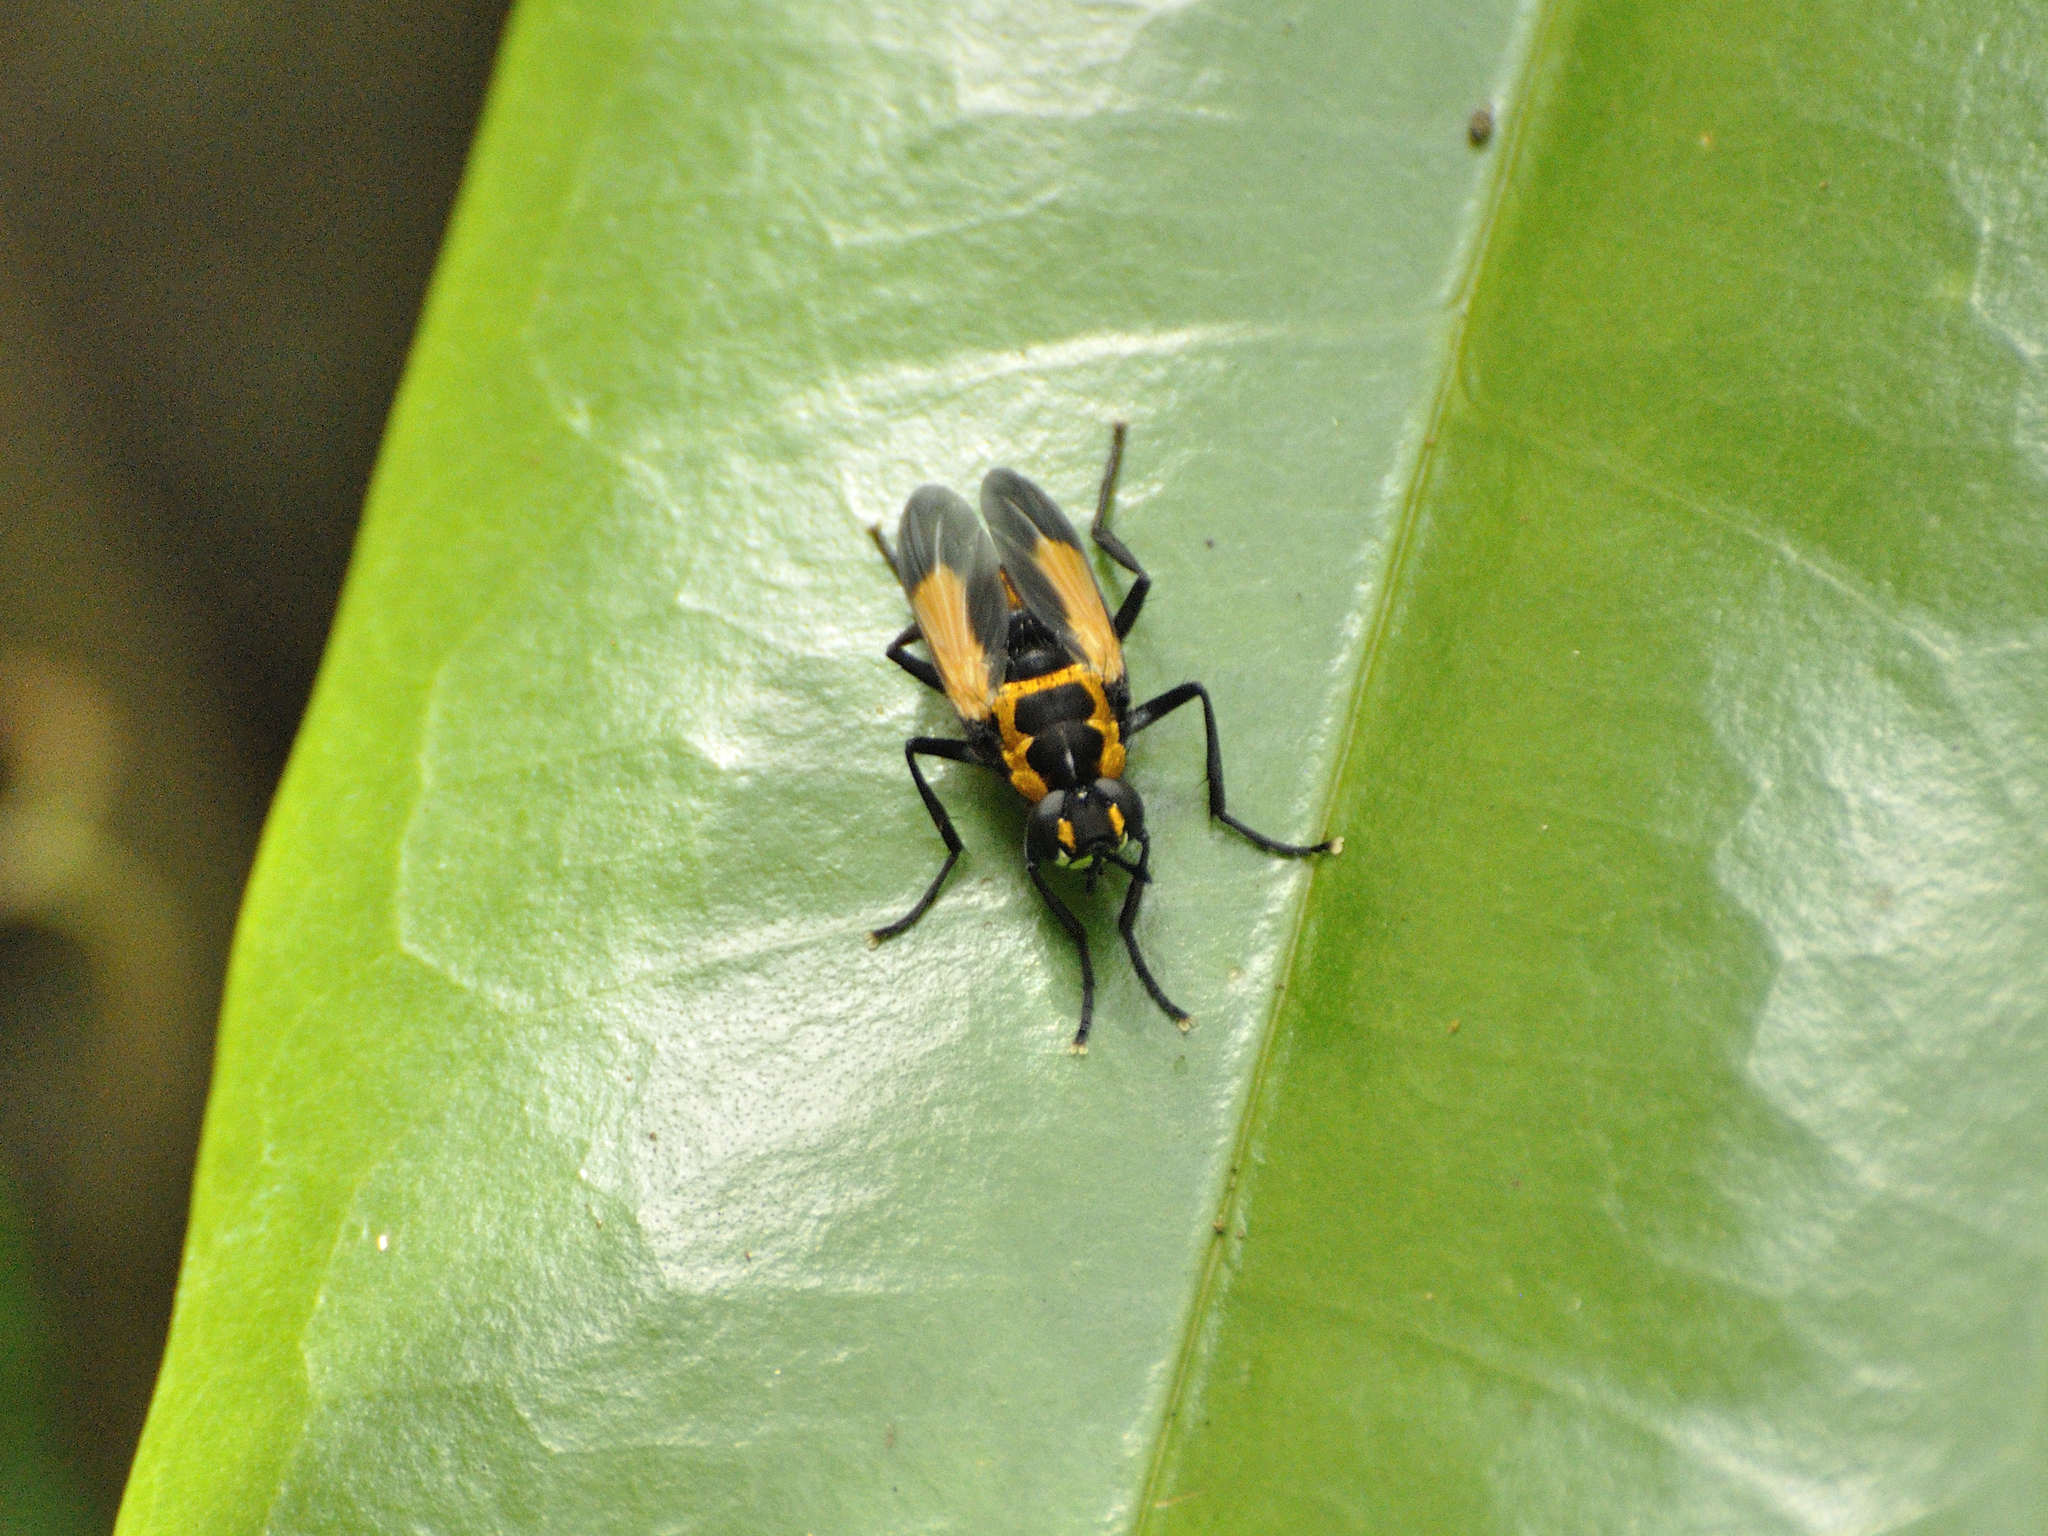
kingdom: Animalia
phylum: Arthropoda
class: Insecta
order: Diptera
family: Tachinidae
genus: Hermya
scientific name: Hermya regalis
